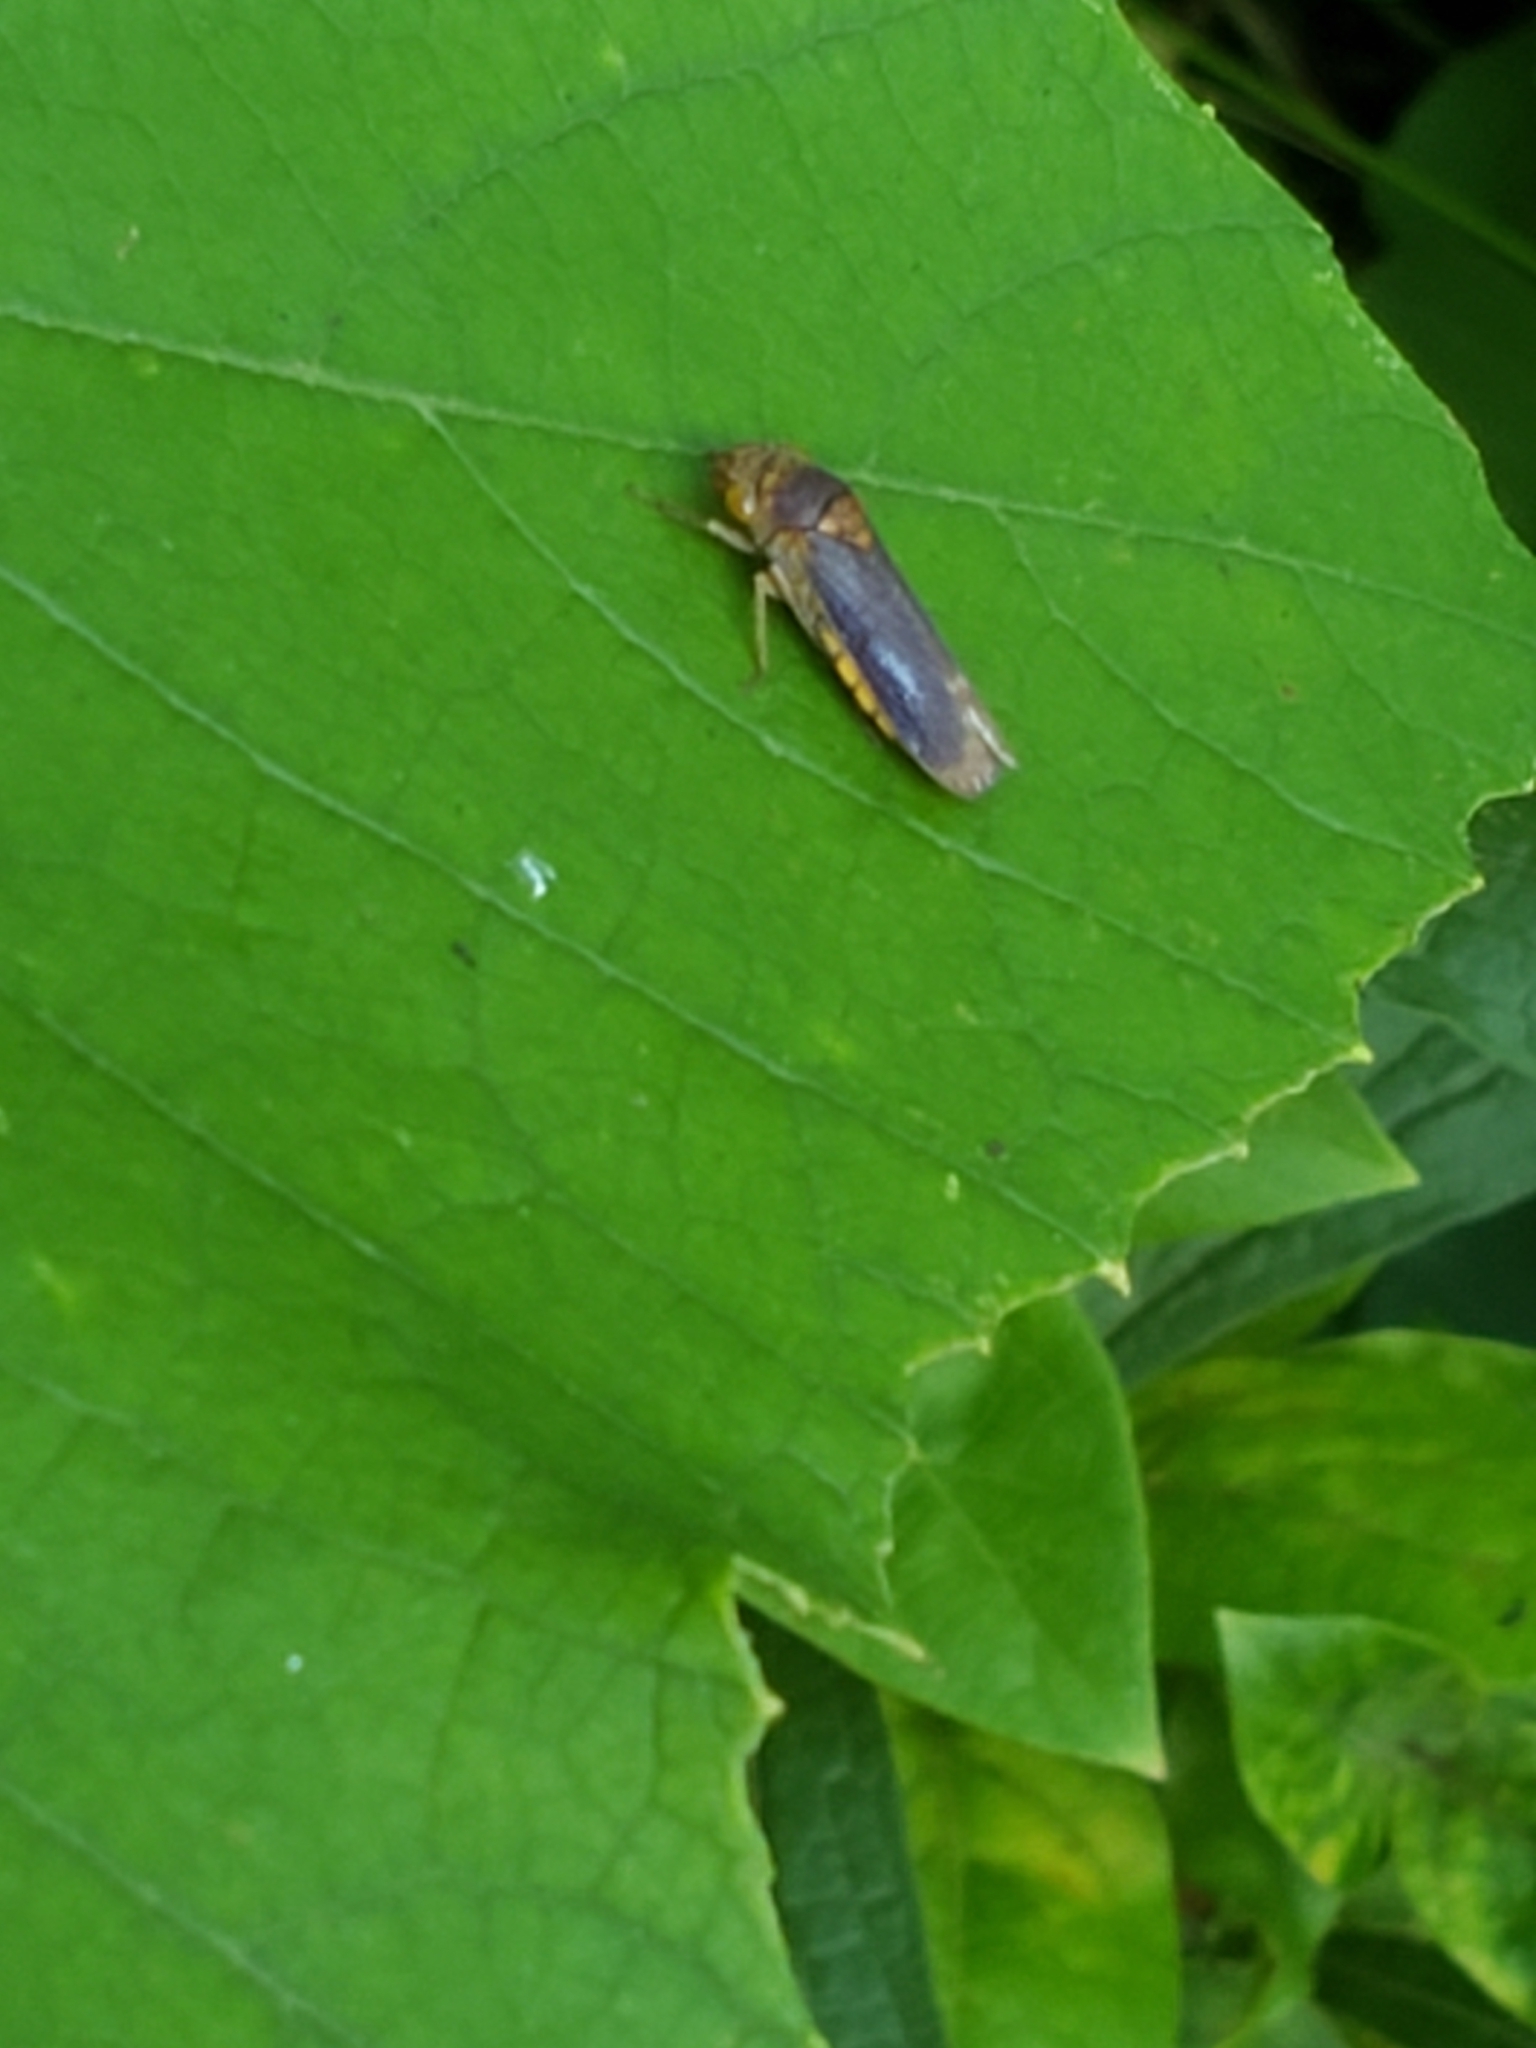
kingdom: Animalia
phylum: Arthropoda
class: Insecta
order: Hemiptera
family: Cicadellidae
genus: Oncometopia
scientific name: Oncometopia orbona
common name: Broad-headed sharpshooter
